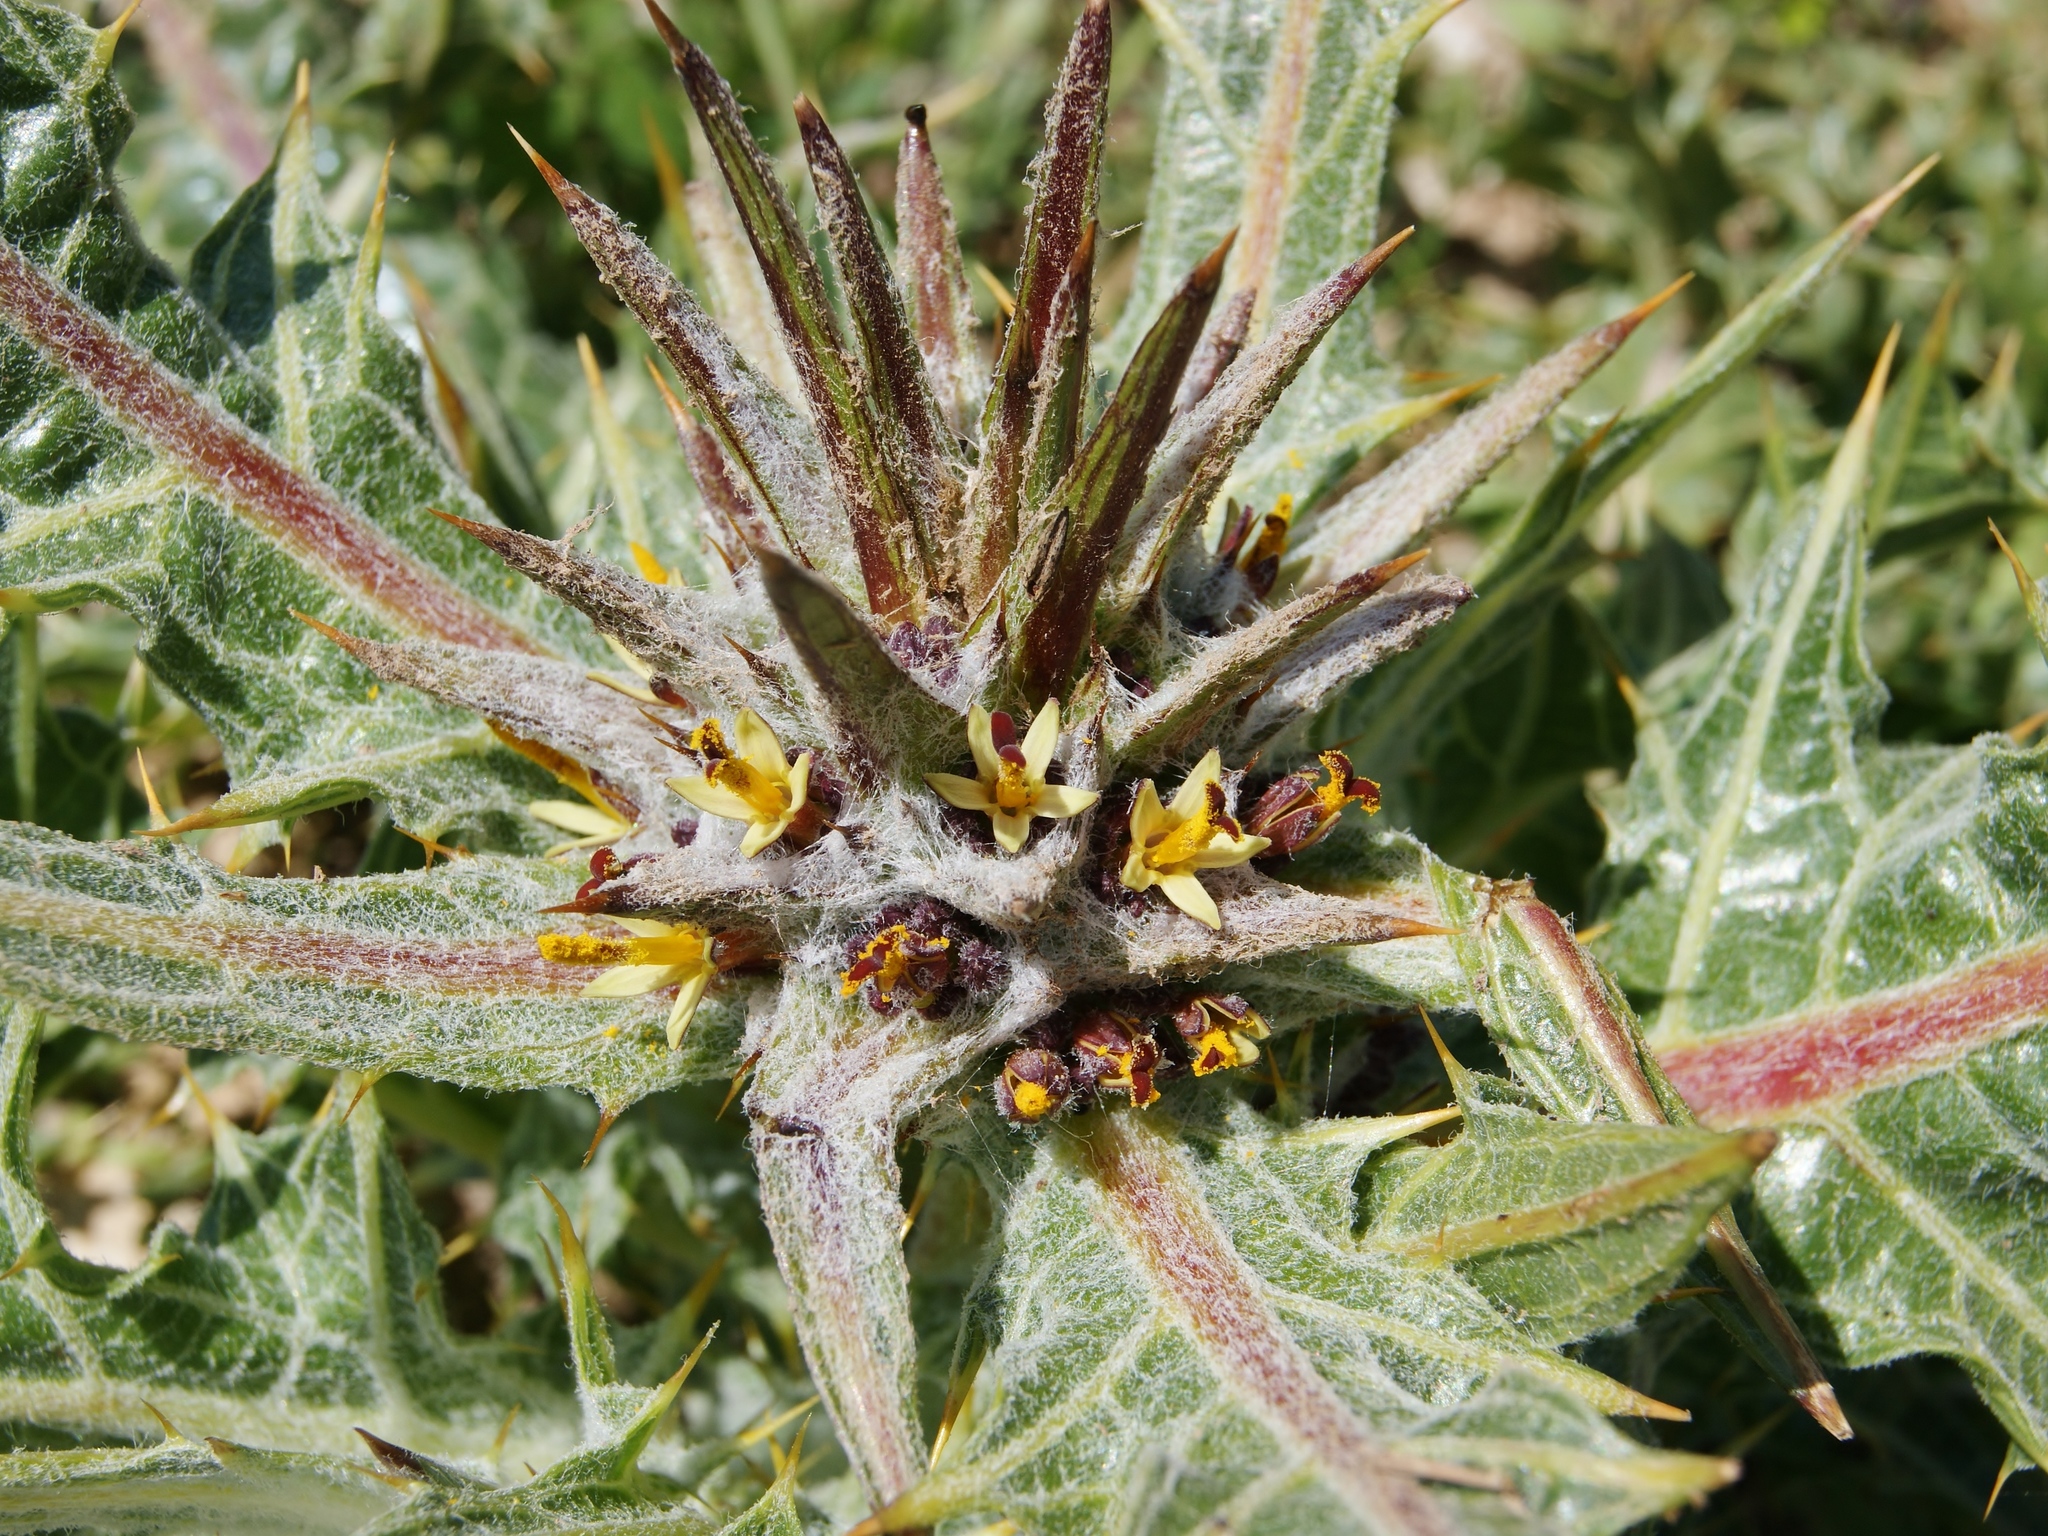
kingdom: Plantae
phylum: Tracheophyta
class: Magnoliopsida
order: Asterales
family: Asteraceae
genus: Gundelia
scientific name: Gundelia tournefortii
